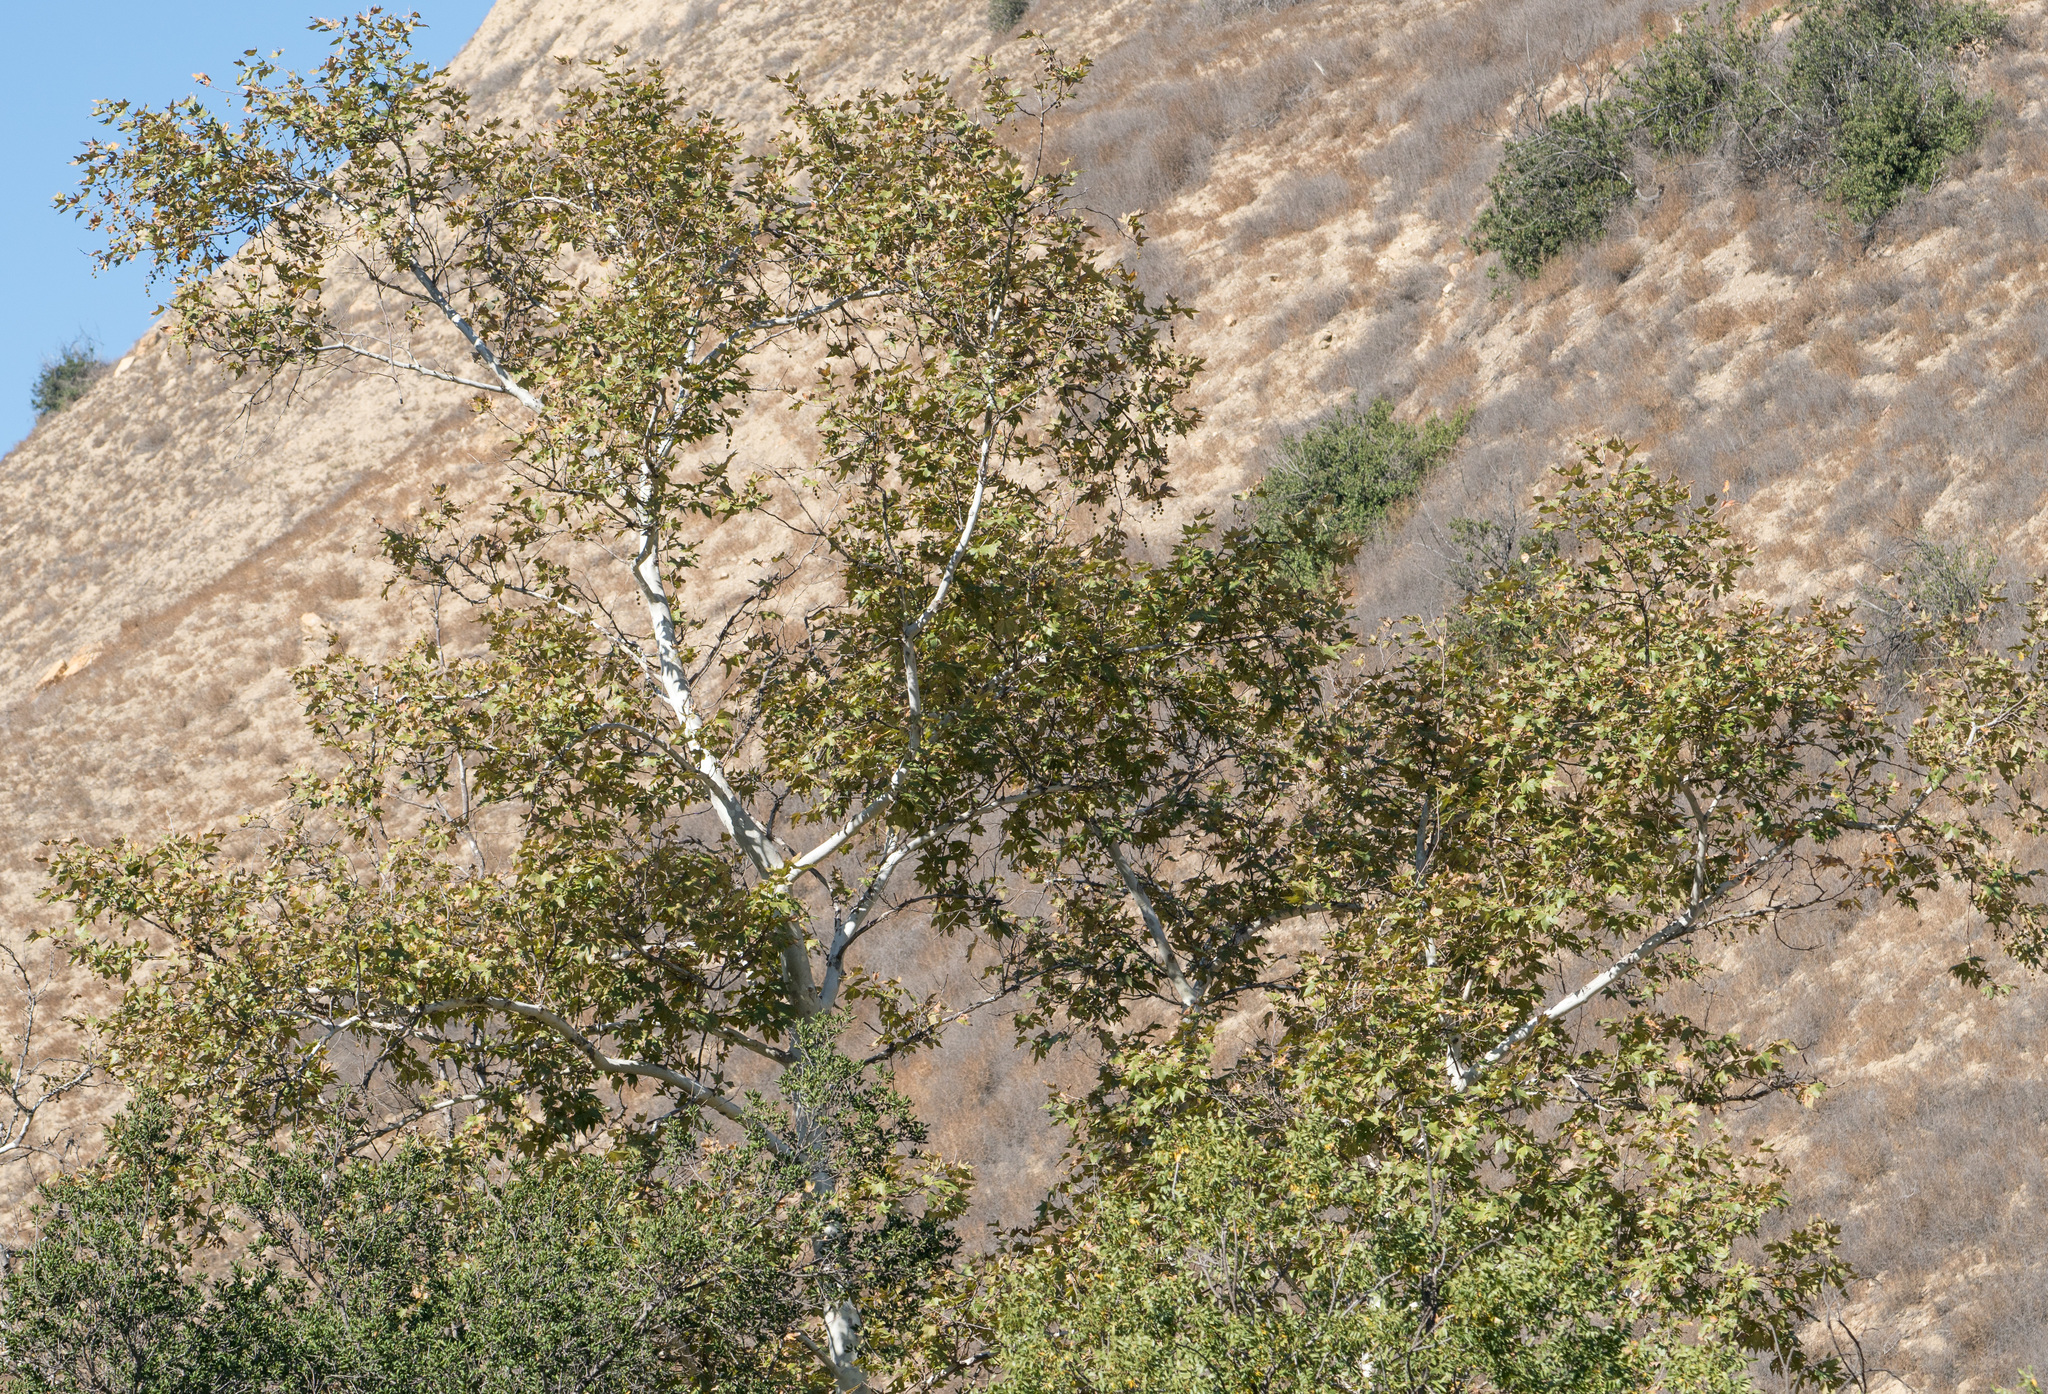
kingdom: Plantae
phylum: Tracheophyta
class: Magnoliopsida
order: Proteales
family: Platanaceae
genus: Platanus
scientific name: Platanus racemosa
